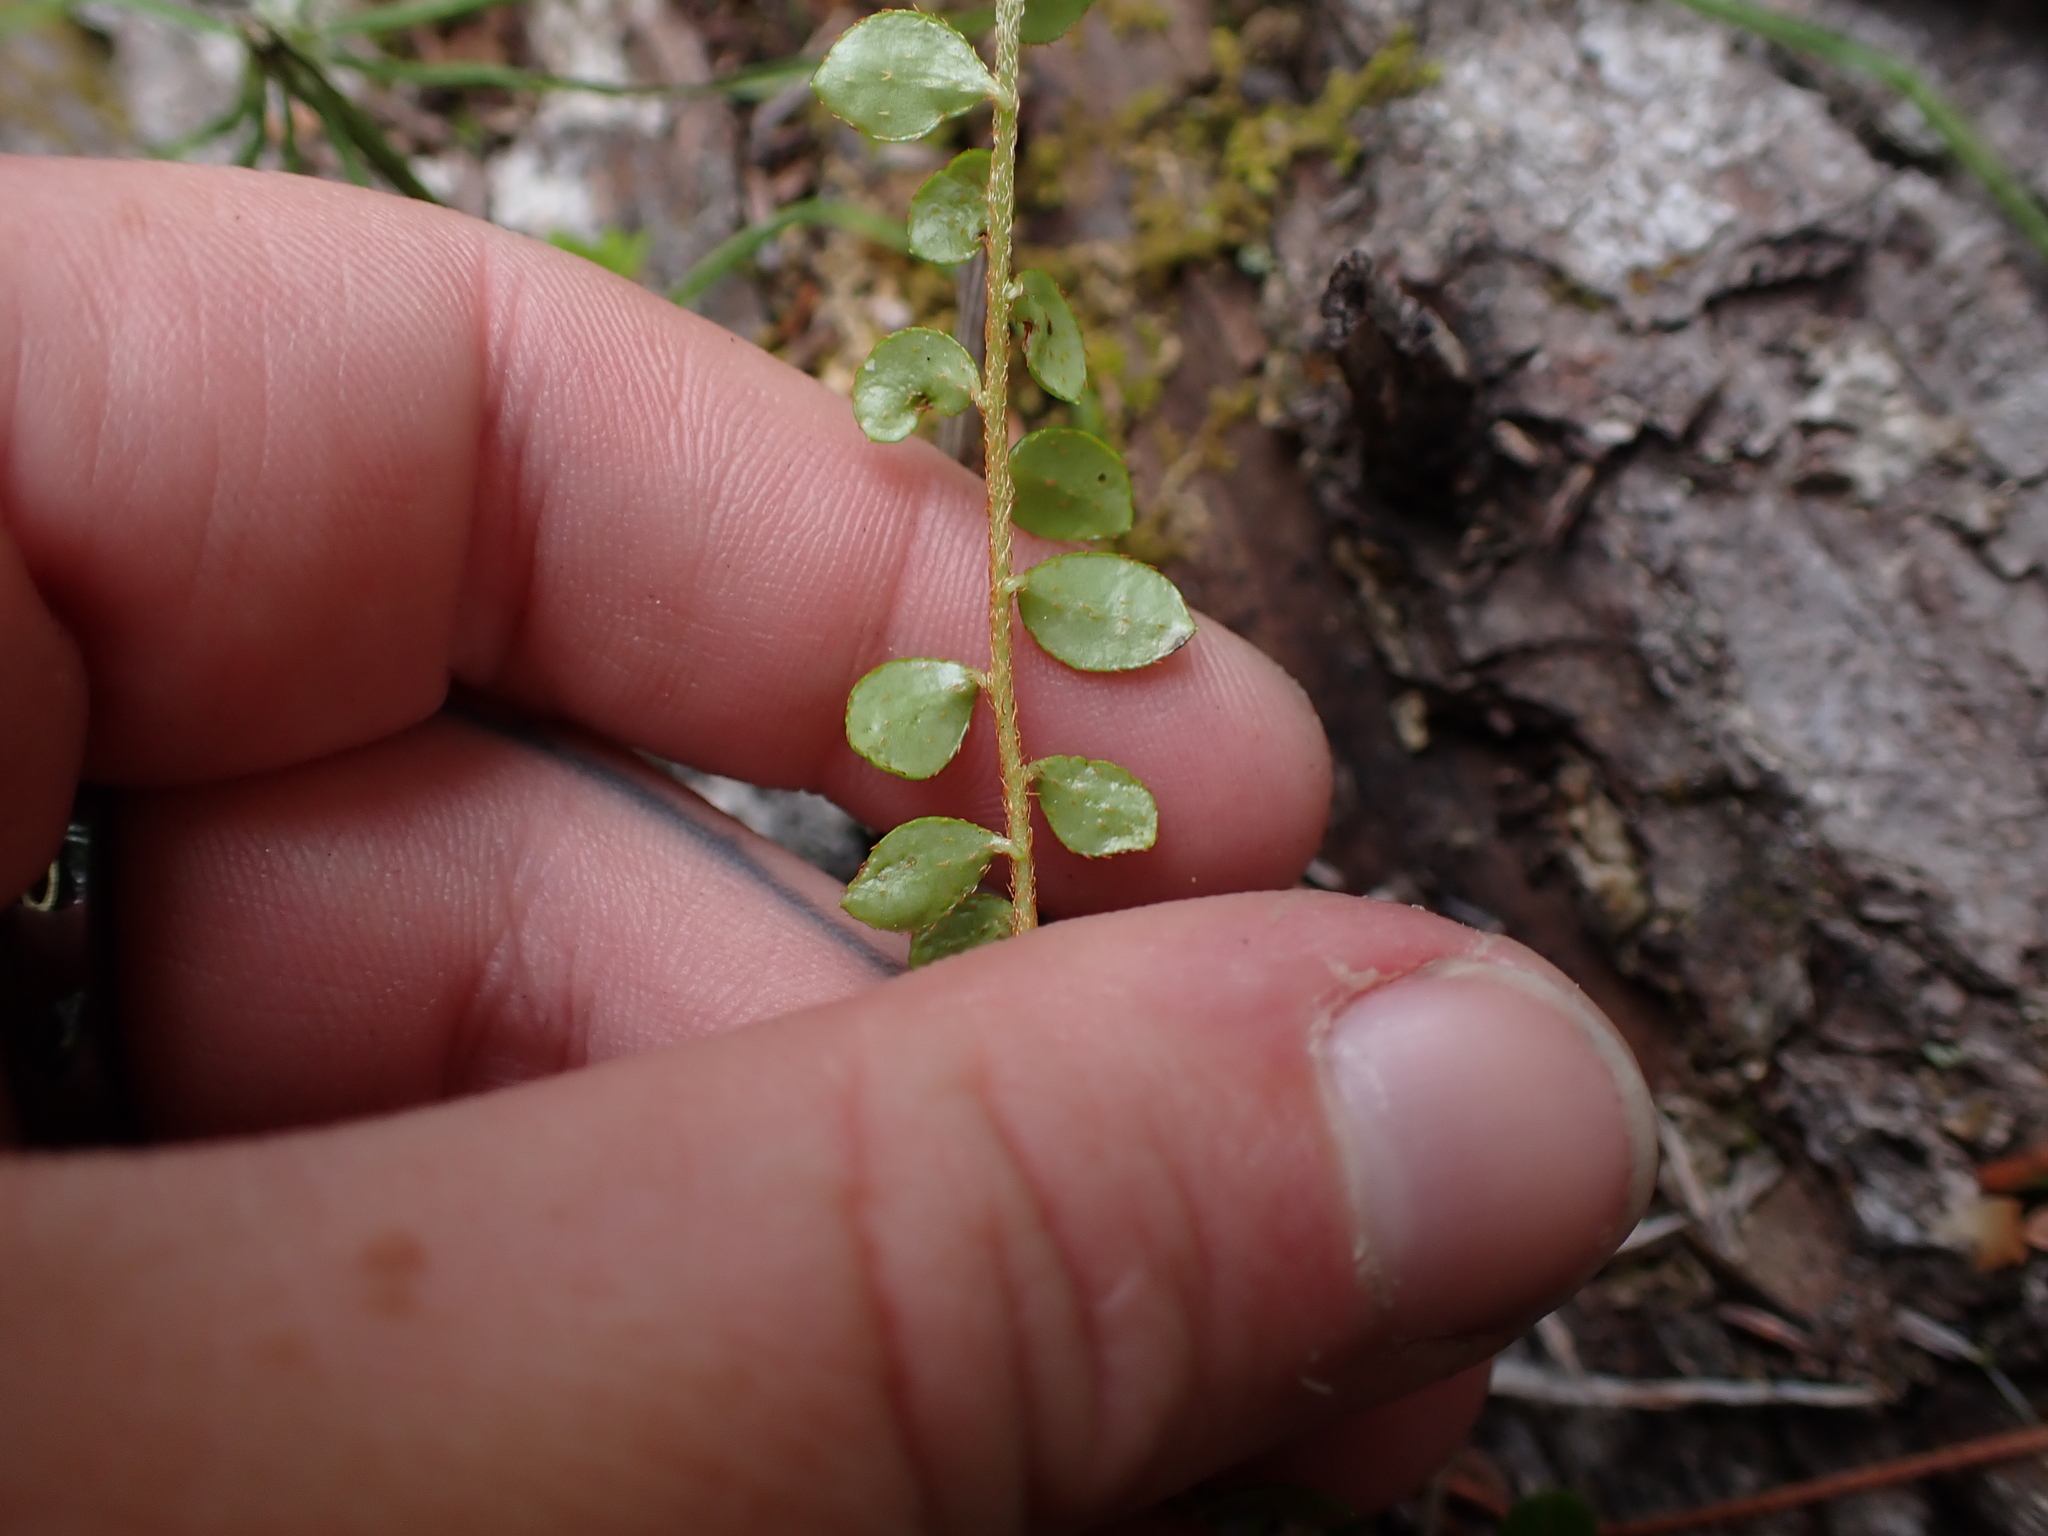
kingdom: Plantae
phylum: Tracheophyta
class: Magnoliopsida
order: Ericales
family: Ericaceae
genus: Gaultheria
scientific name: Gaultheria hispidula
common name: Cancer wintergreen
